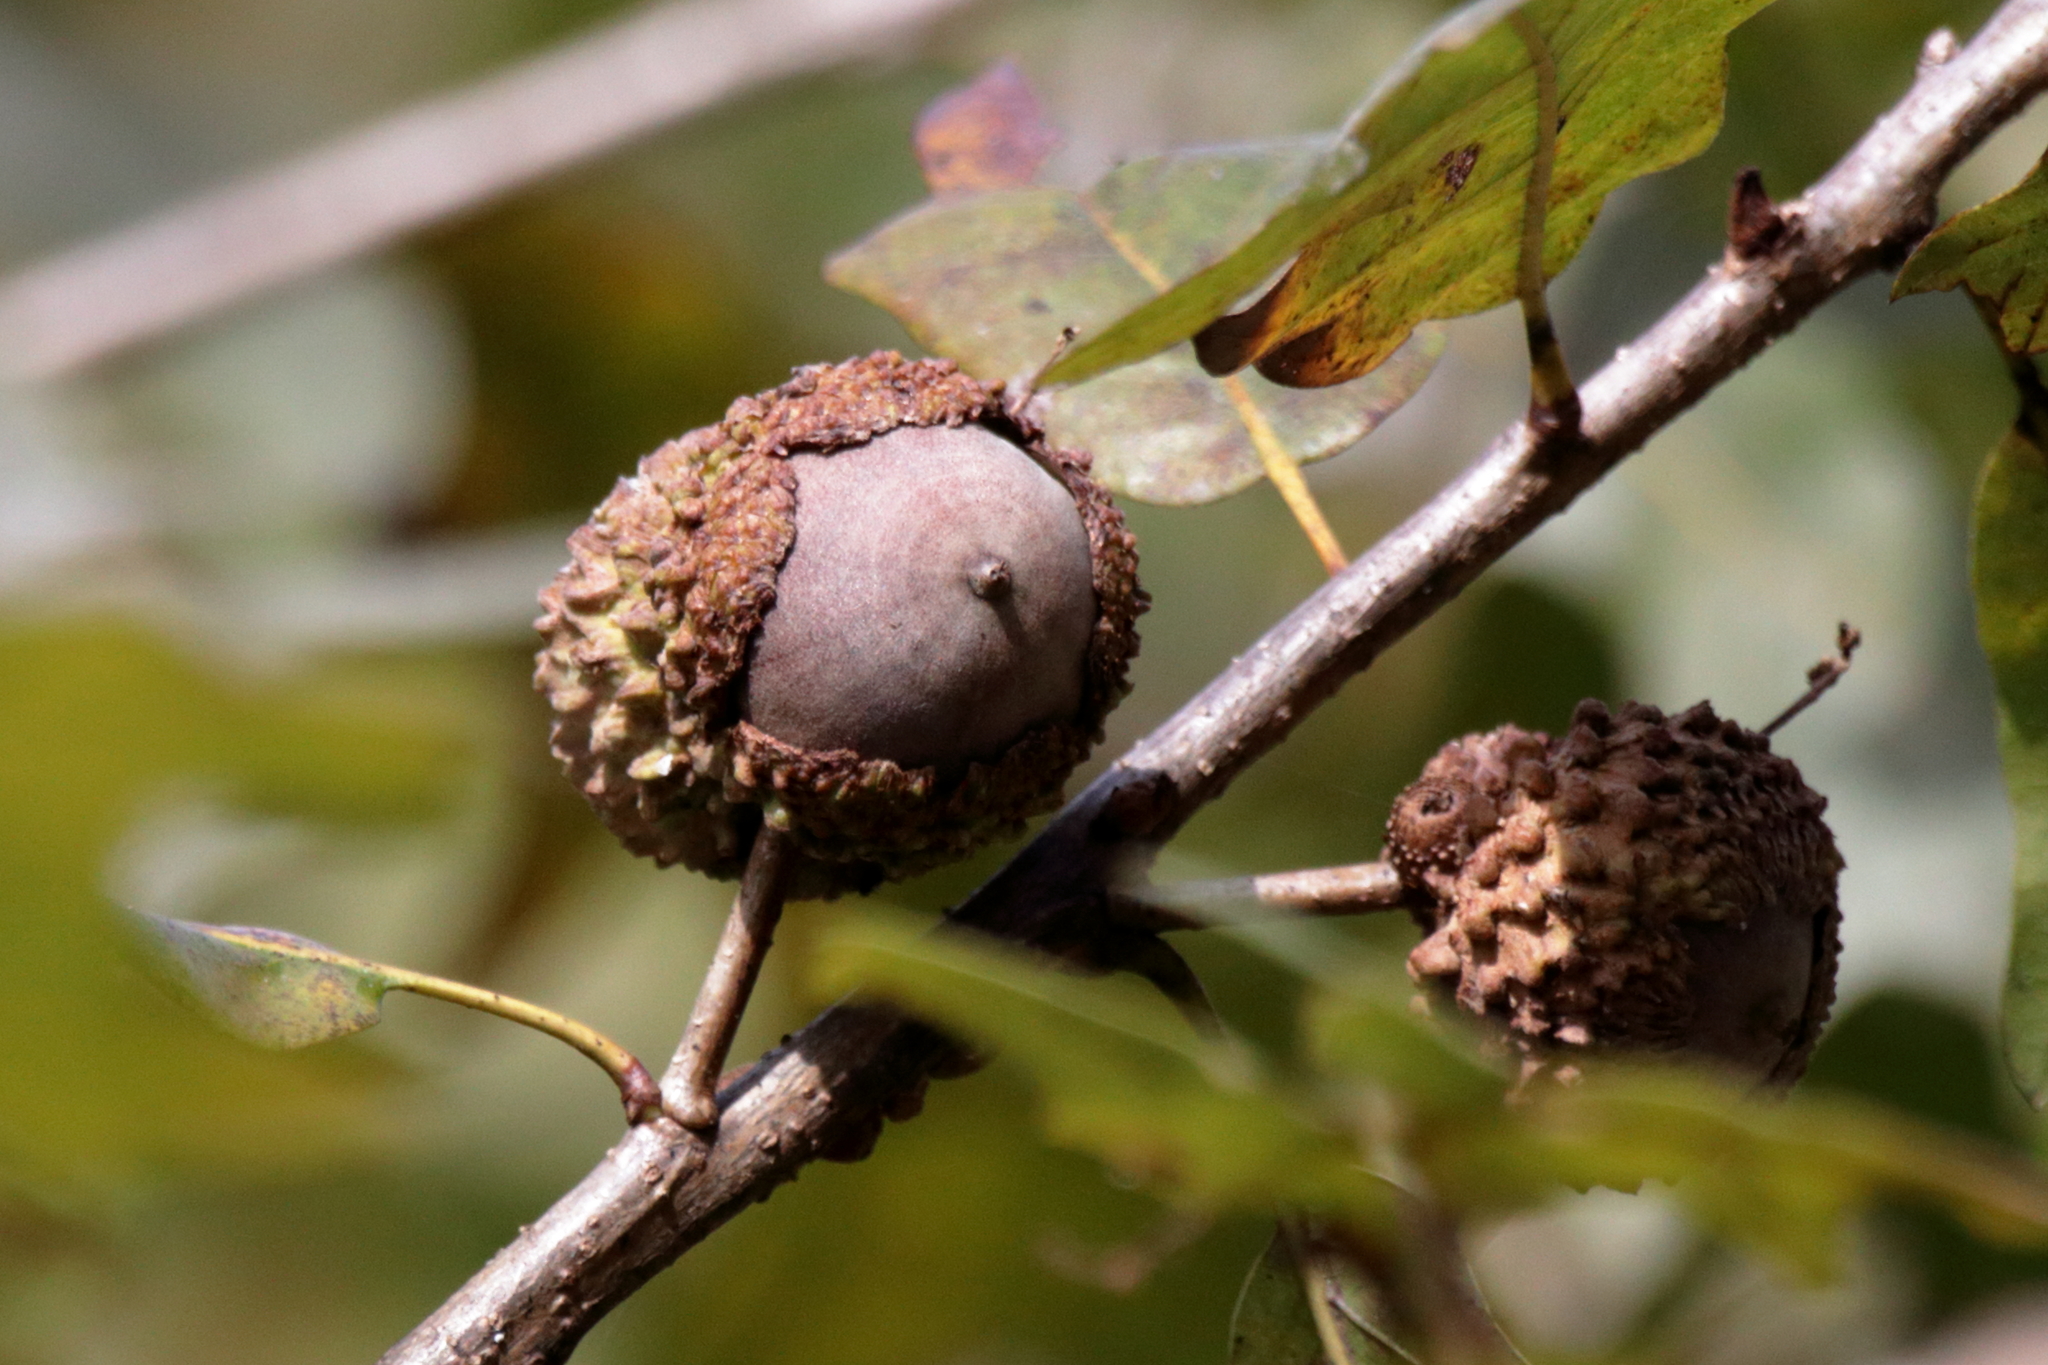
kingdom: Plantae
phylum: Tracheophyta
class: Magnoliopsida
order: Fagales
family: Fagaceae
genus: Quercus
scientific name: Quercus lyrata
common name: Overcup oak
